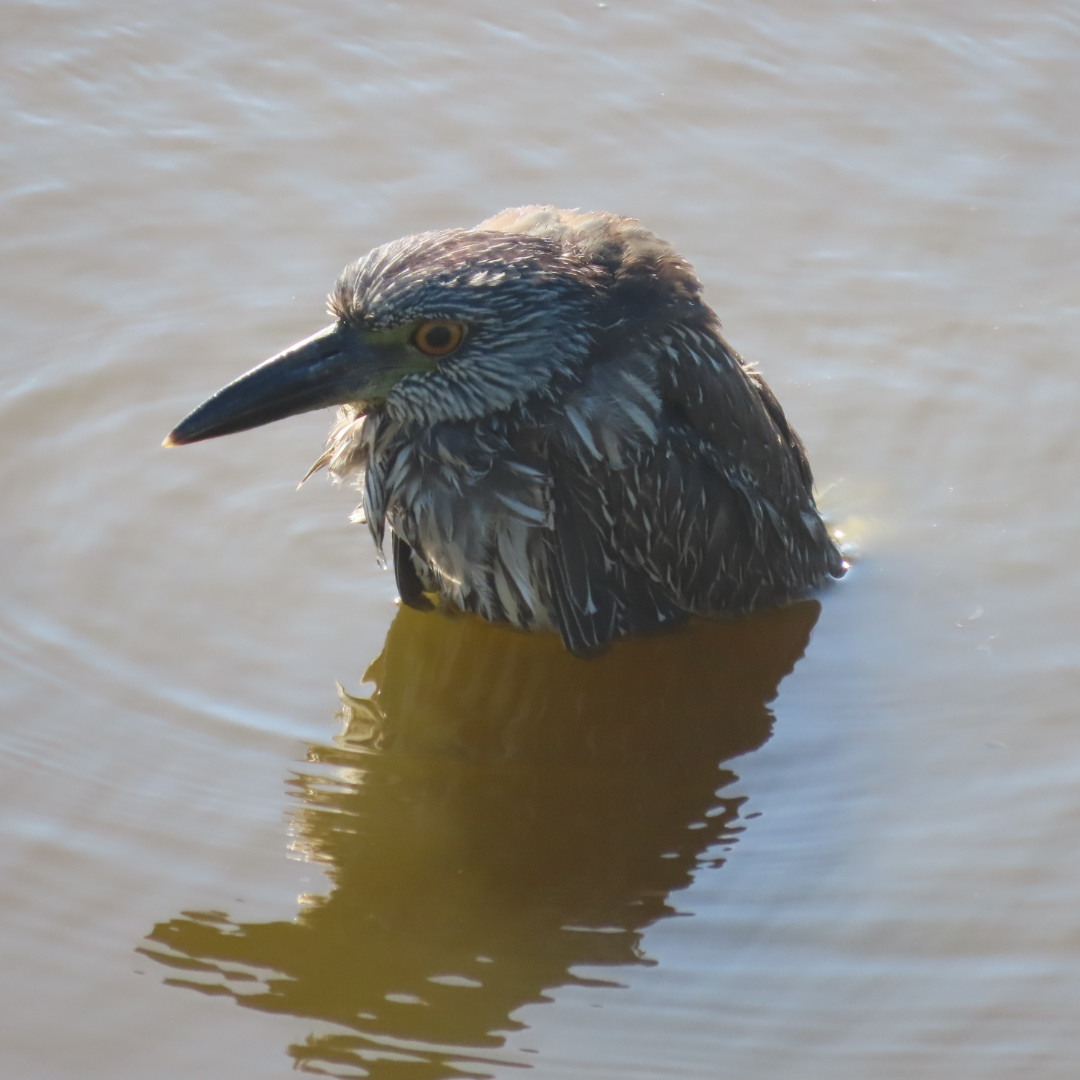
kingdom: Animalia
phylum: Chordata
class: Aves
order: Pelecaniformes
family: Ardeidae
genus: Nyctanassa
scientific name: Nyctanassa violacea
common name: Yellow-crowned night heron
